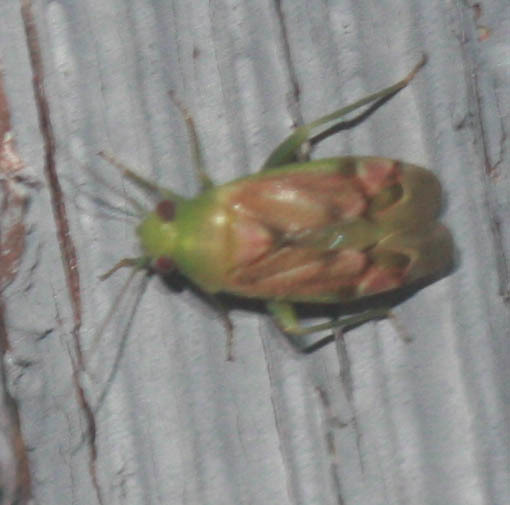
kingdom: Animalia
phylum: Arthropoda
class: Insecta
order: Hemiptera
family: Miridae
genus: Dichrooscytus
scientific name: Dichrooscytus
